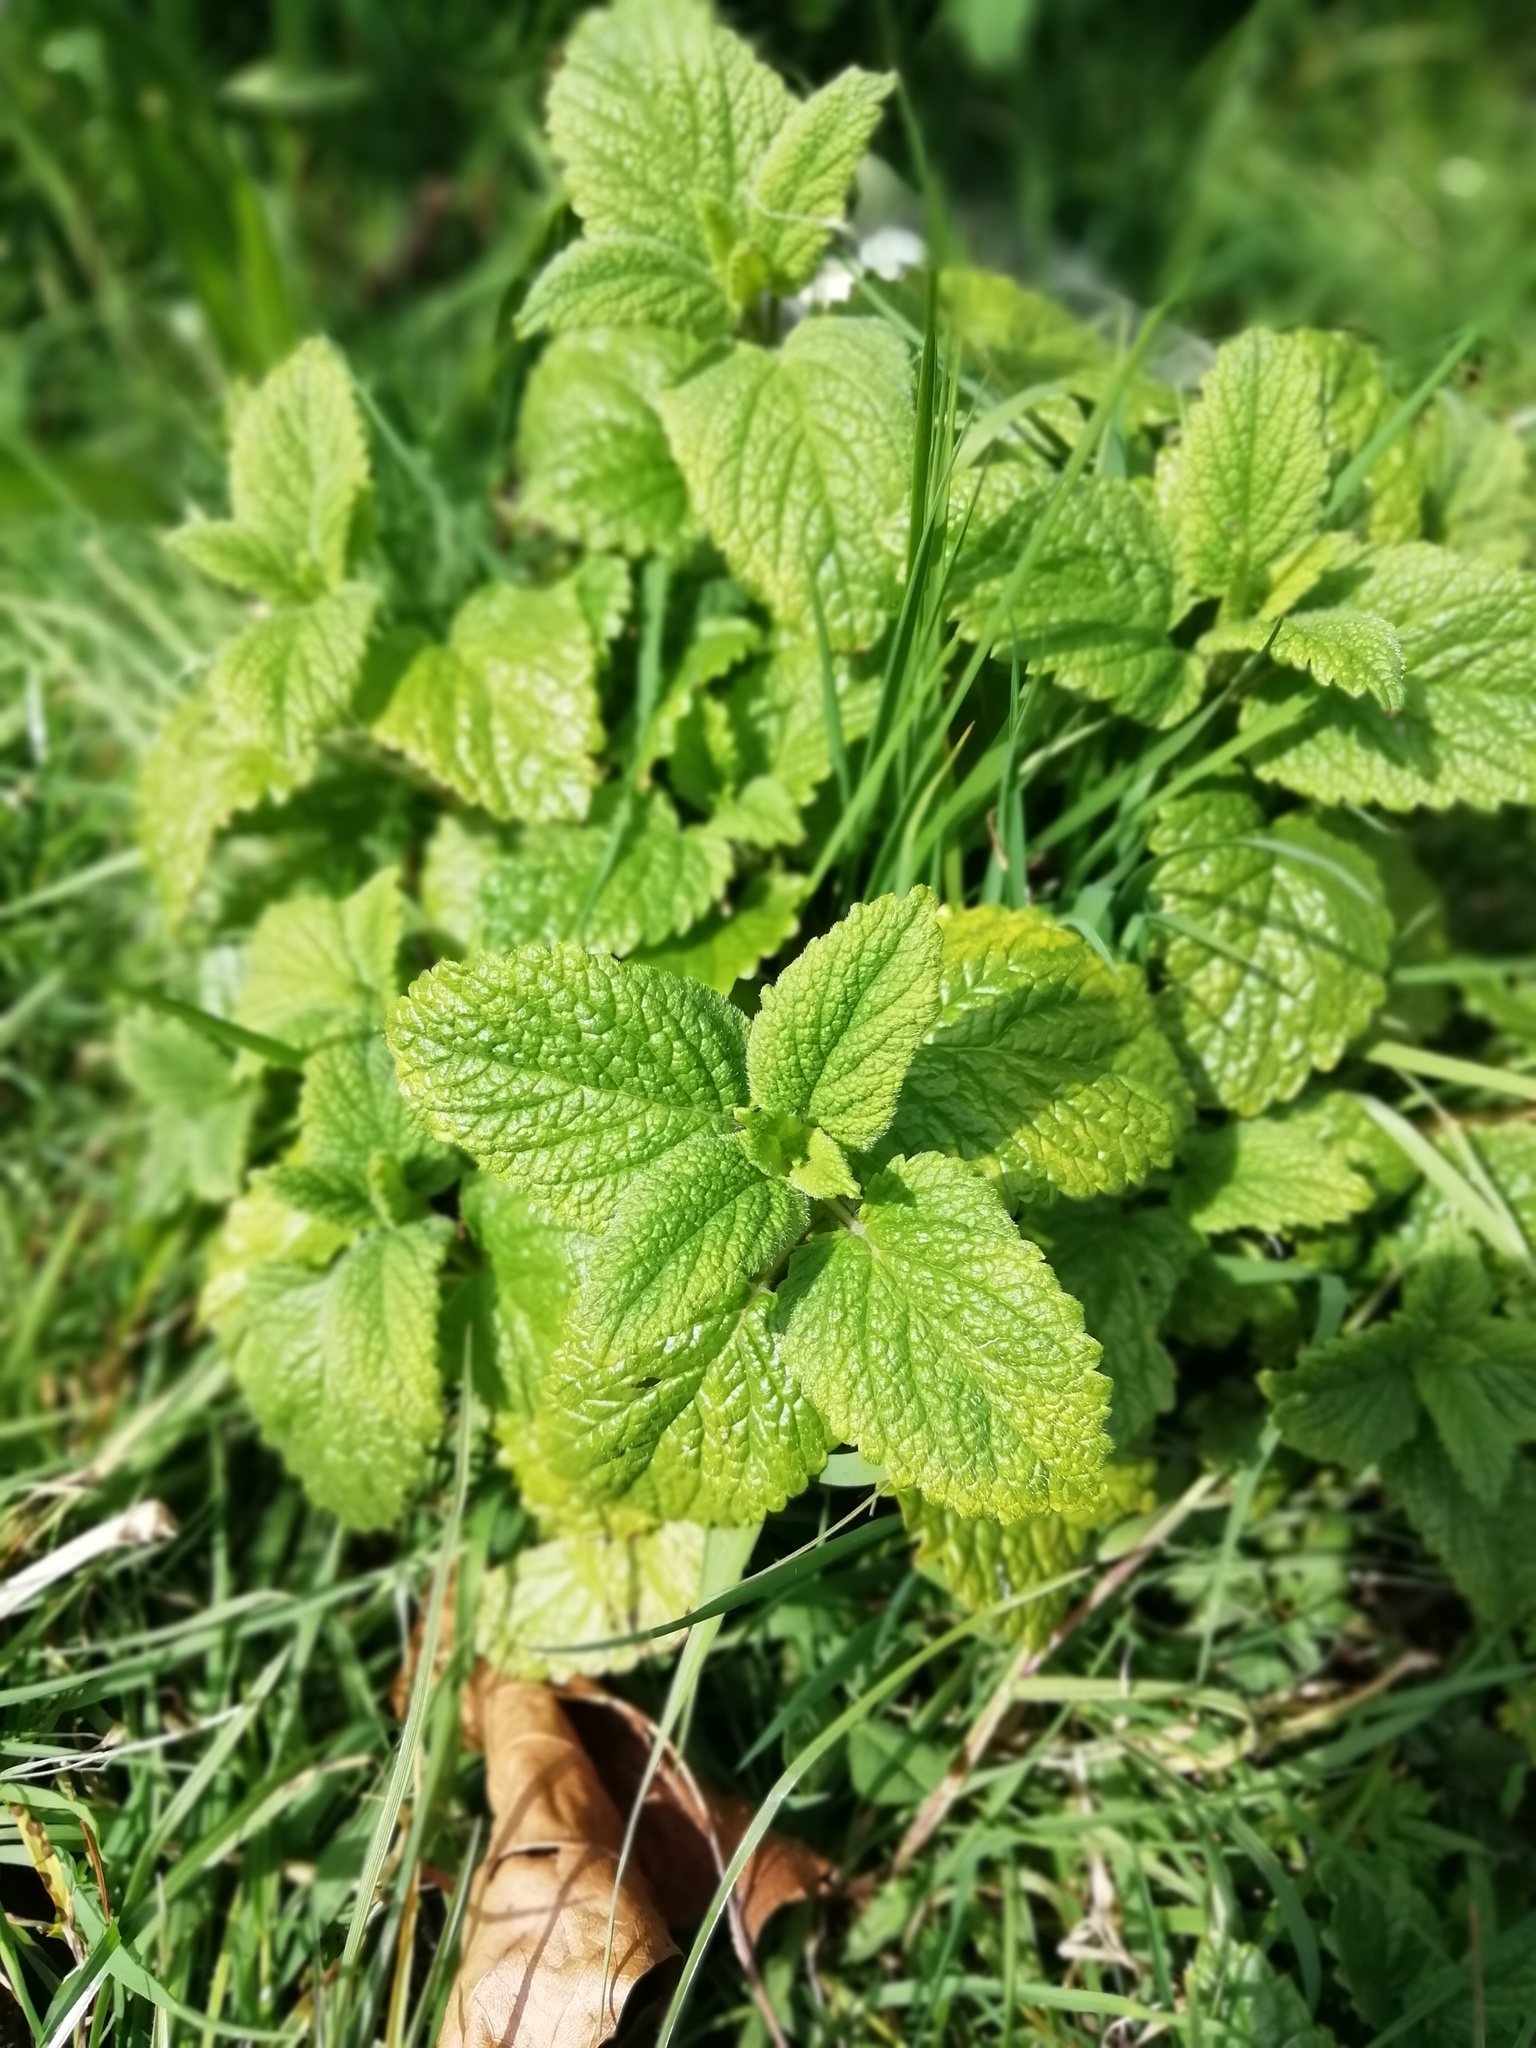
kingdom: Plantae
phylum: Tracheophyta
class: Magnoliopsida
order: Lamiales
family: Lamiaceae
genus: Melissa
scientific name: Melissa officinalis
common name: Balm
